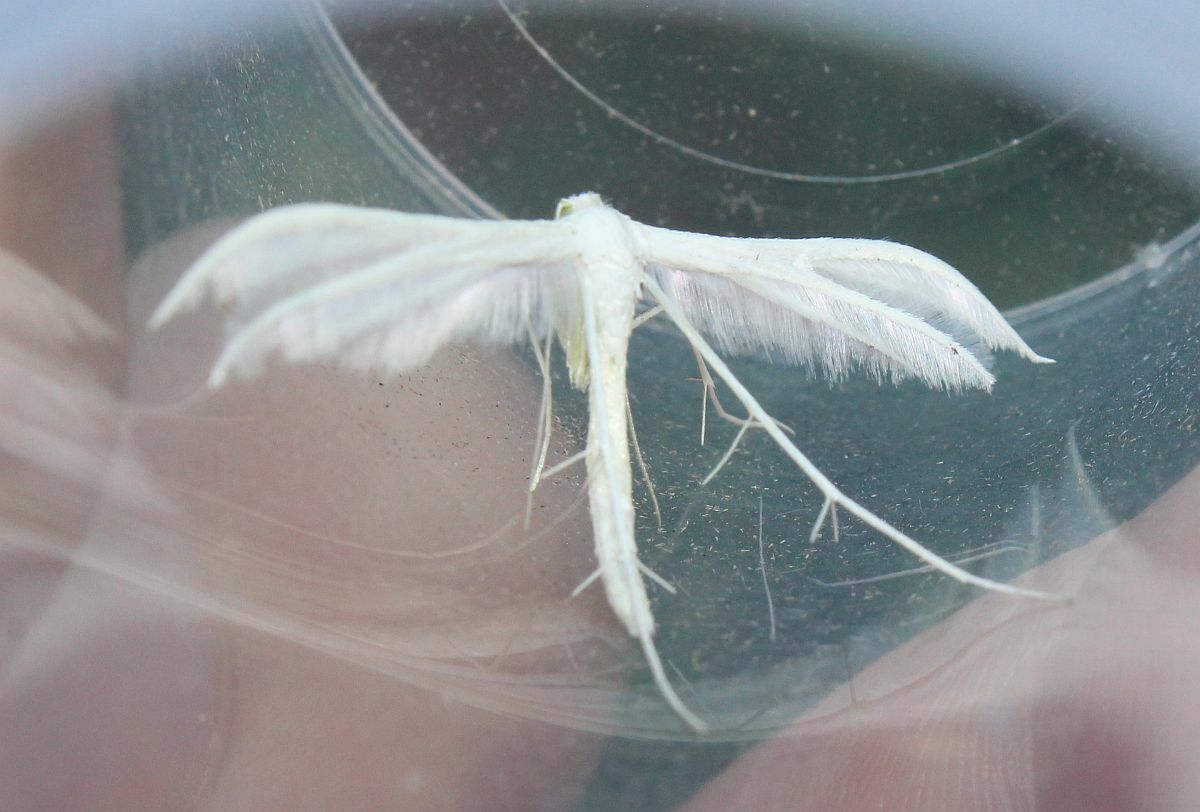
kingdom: Animalia
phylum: Arthropoda
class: Insecta
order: Lepidoptera
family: Pterophoridae
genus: Pterophorus
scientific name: Pterophorus pentadactyla
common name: White plume moth
